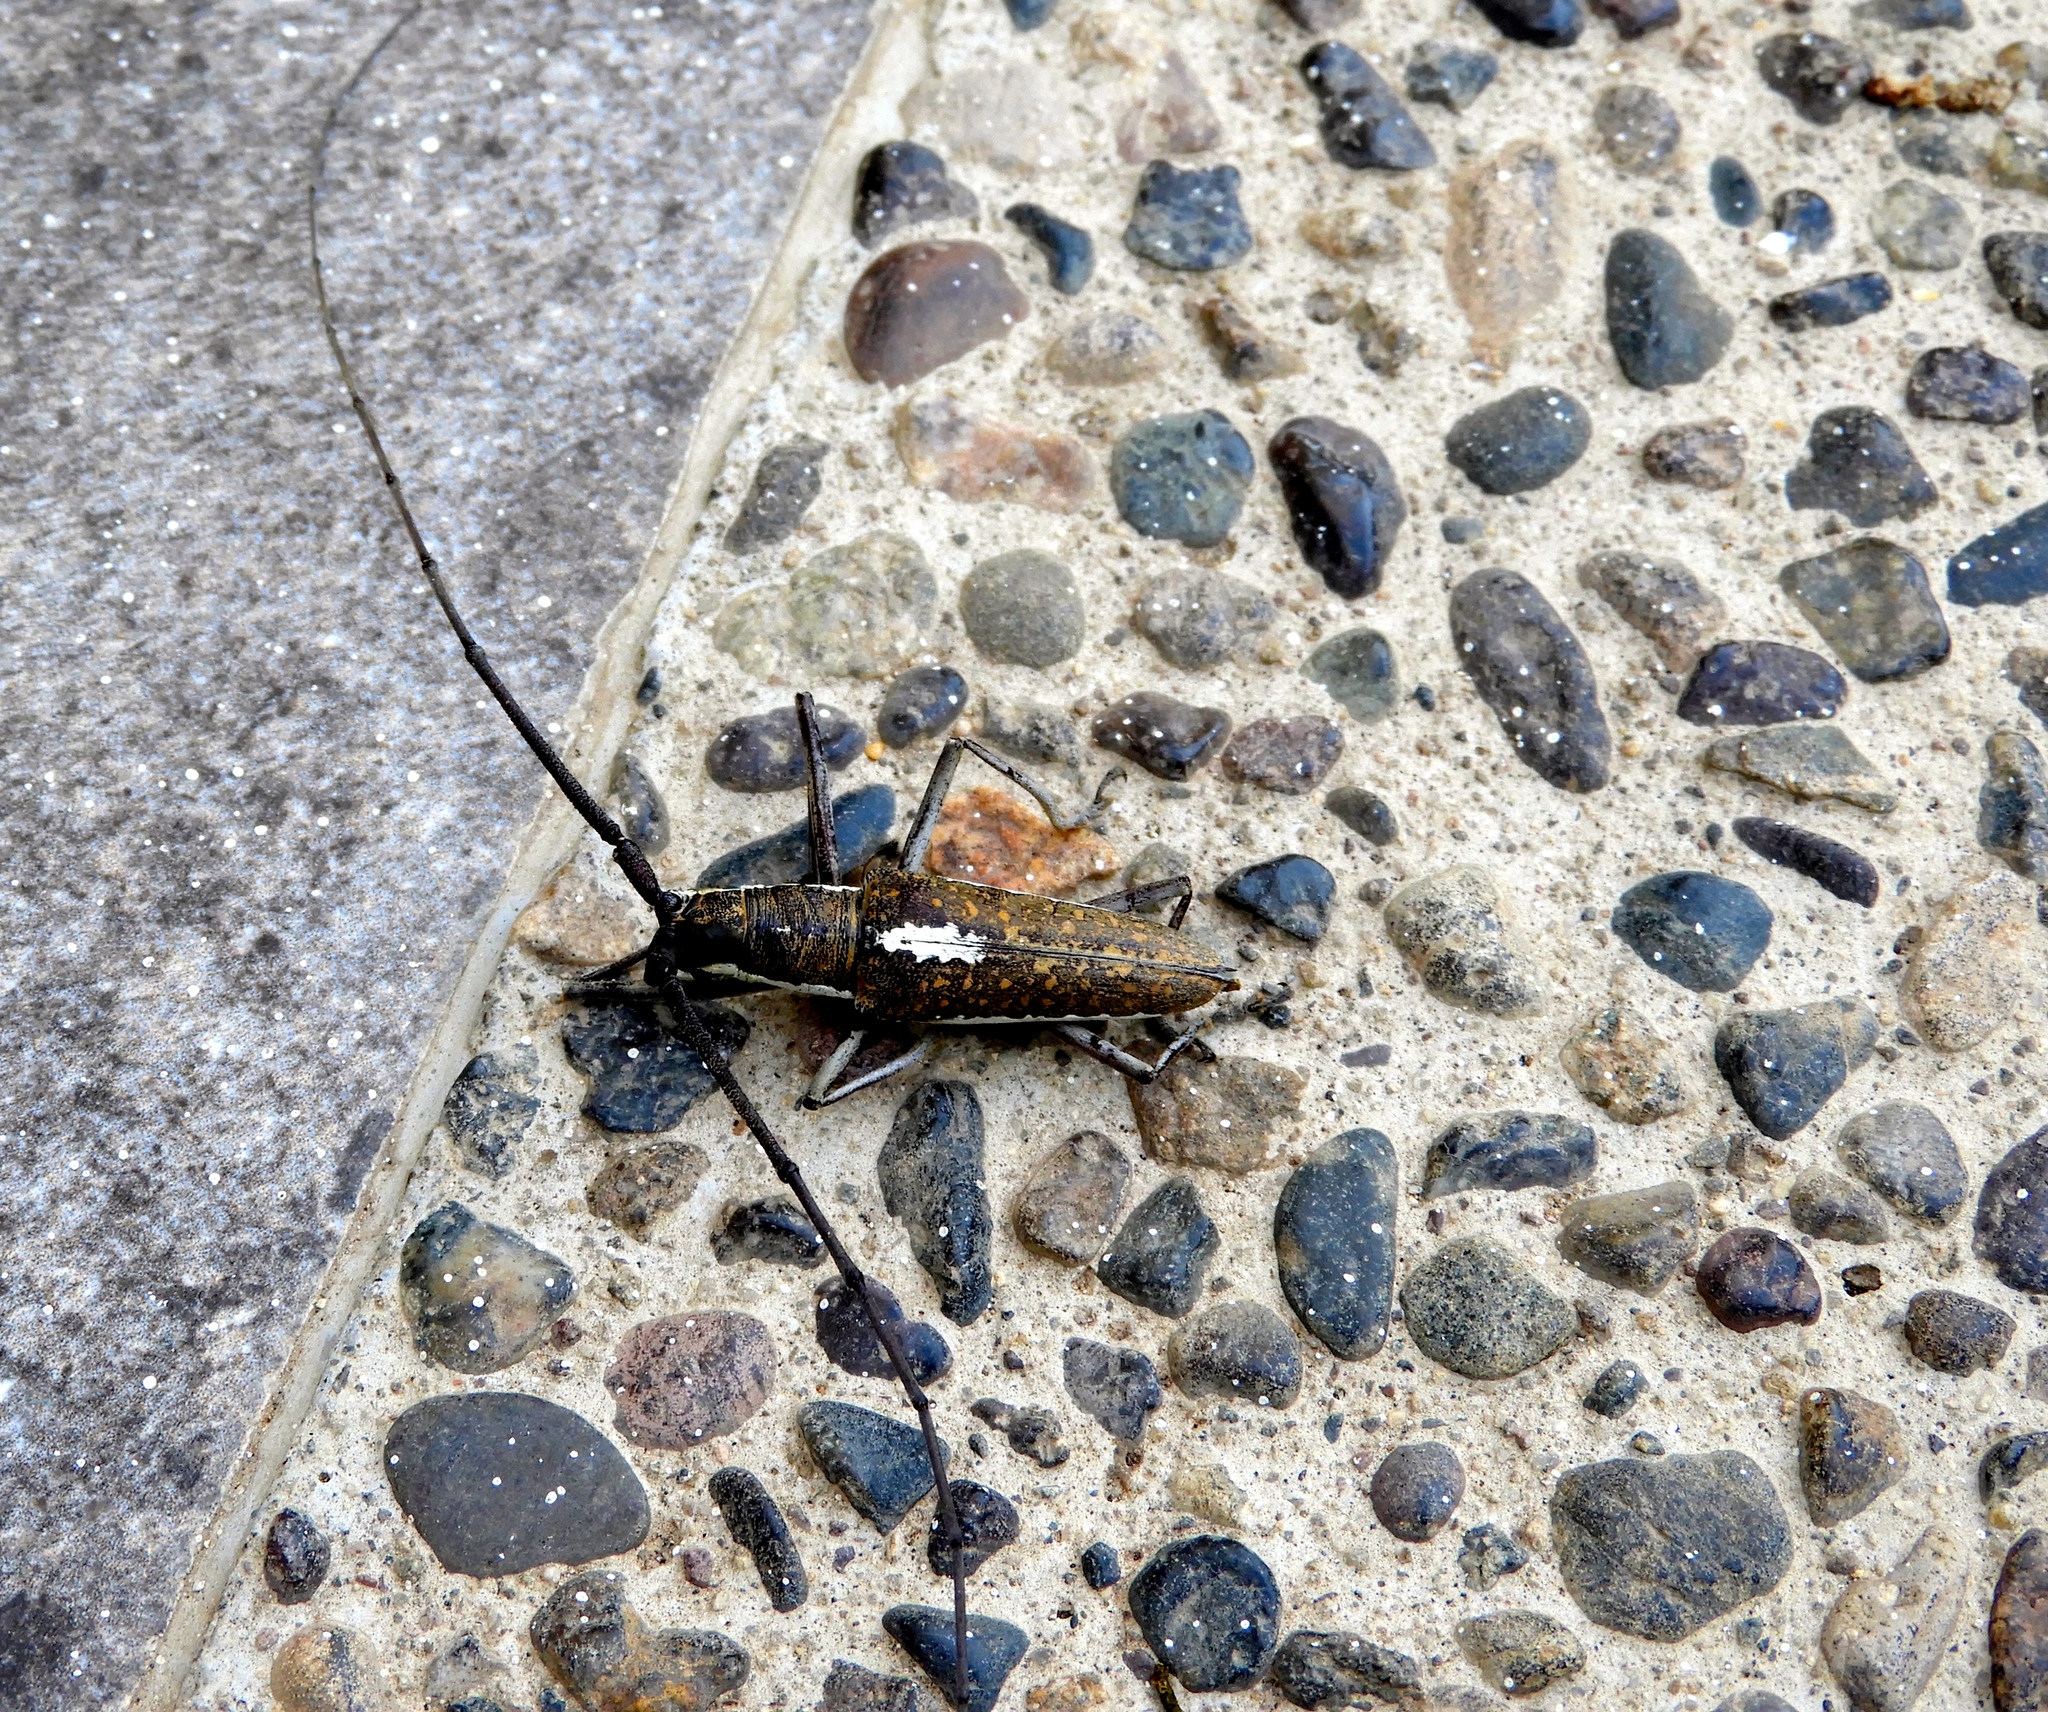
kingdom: Animalia
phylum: Arthropoda
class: Insecta
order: Coleoptera
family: Cerambycidae
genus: Neoptychodes
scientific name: Neoptychodes trilineatus
